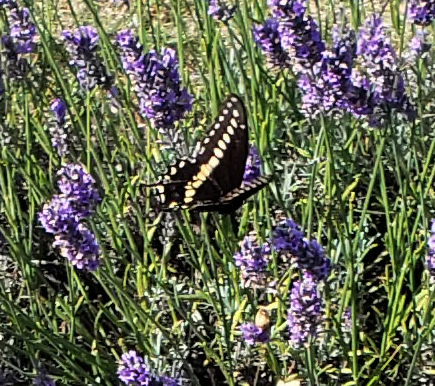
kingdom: Animalia
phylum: Arthropoda
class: Insecta
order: Lepidoptera
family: Papilionidae
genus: Papilio
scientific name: Papilio polyxenes
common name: Black swallowtail
